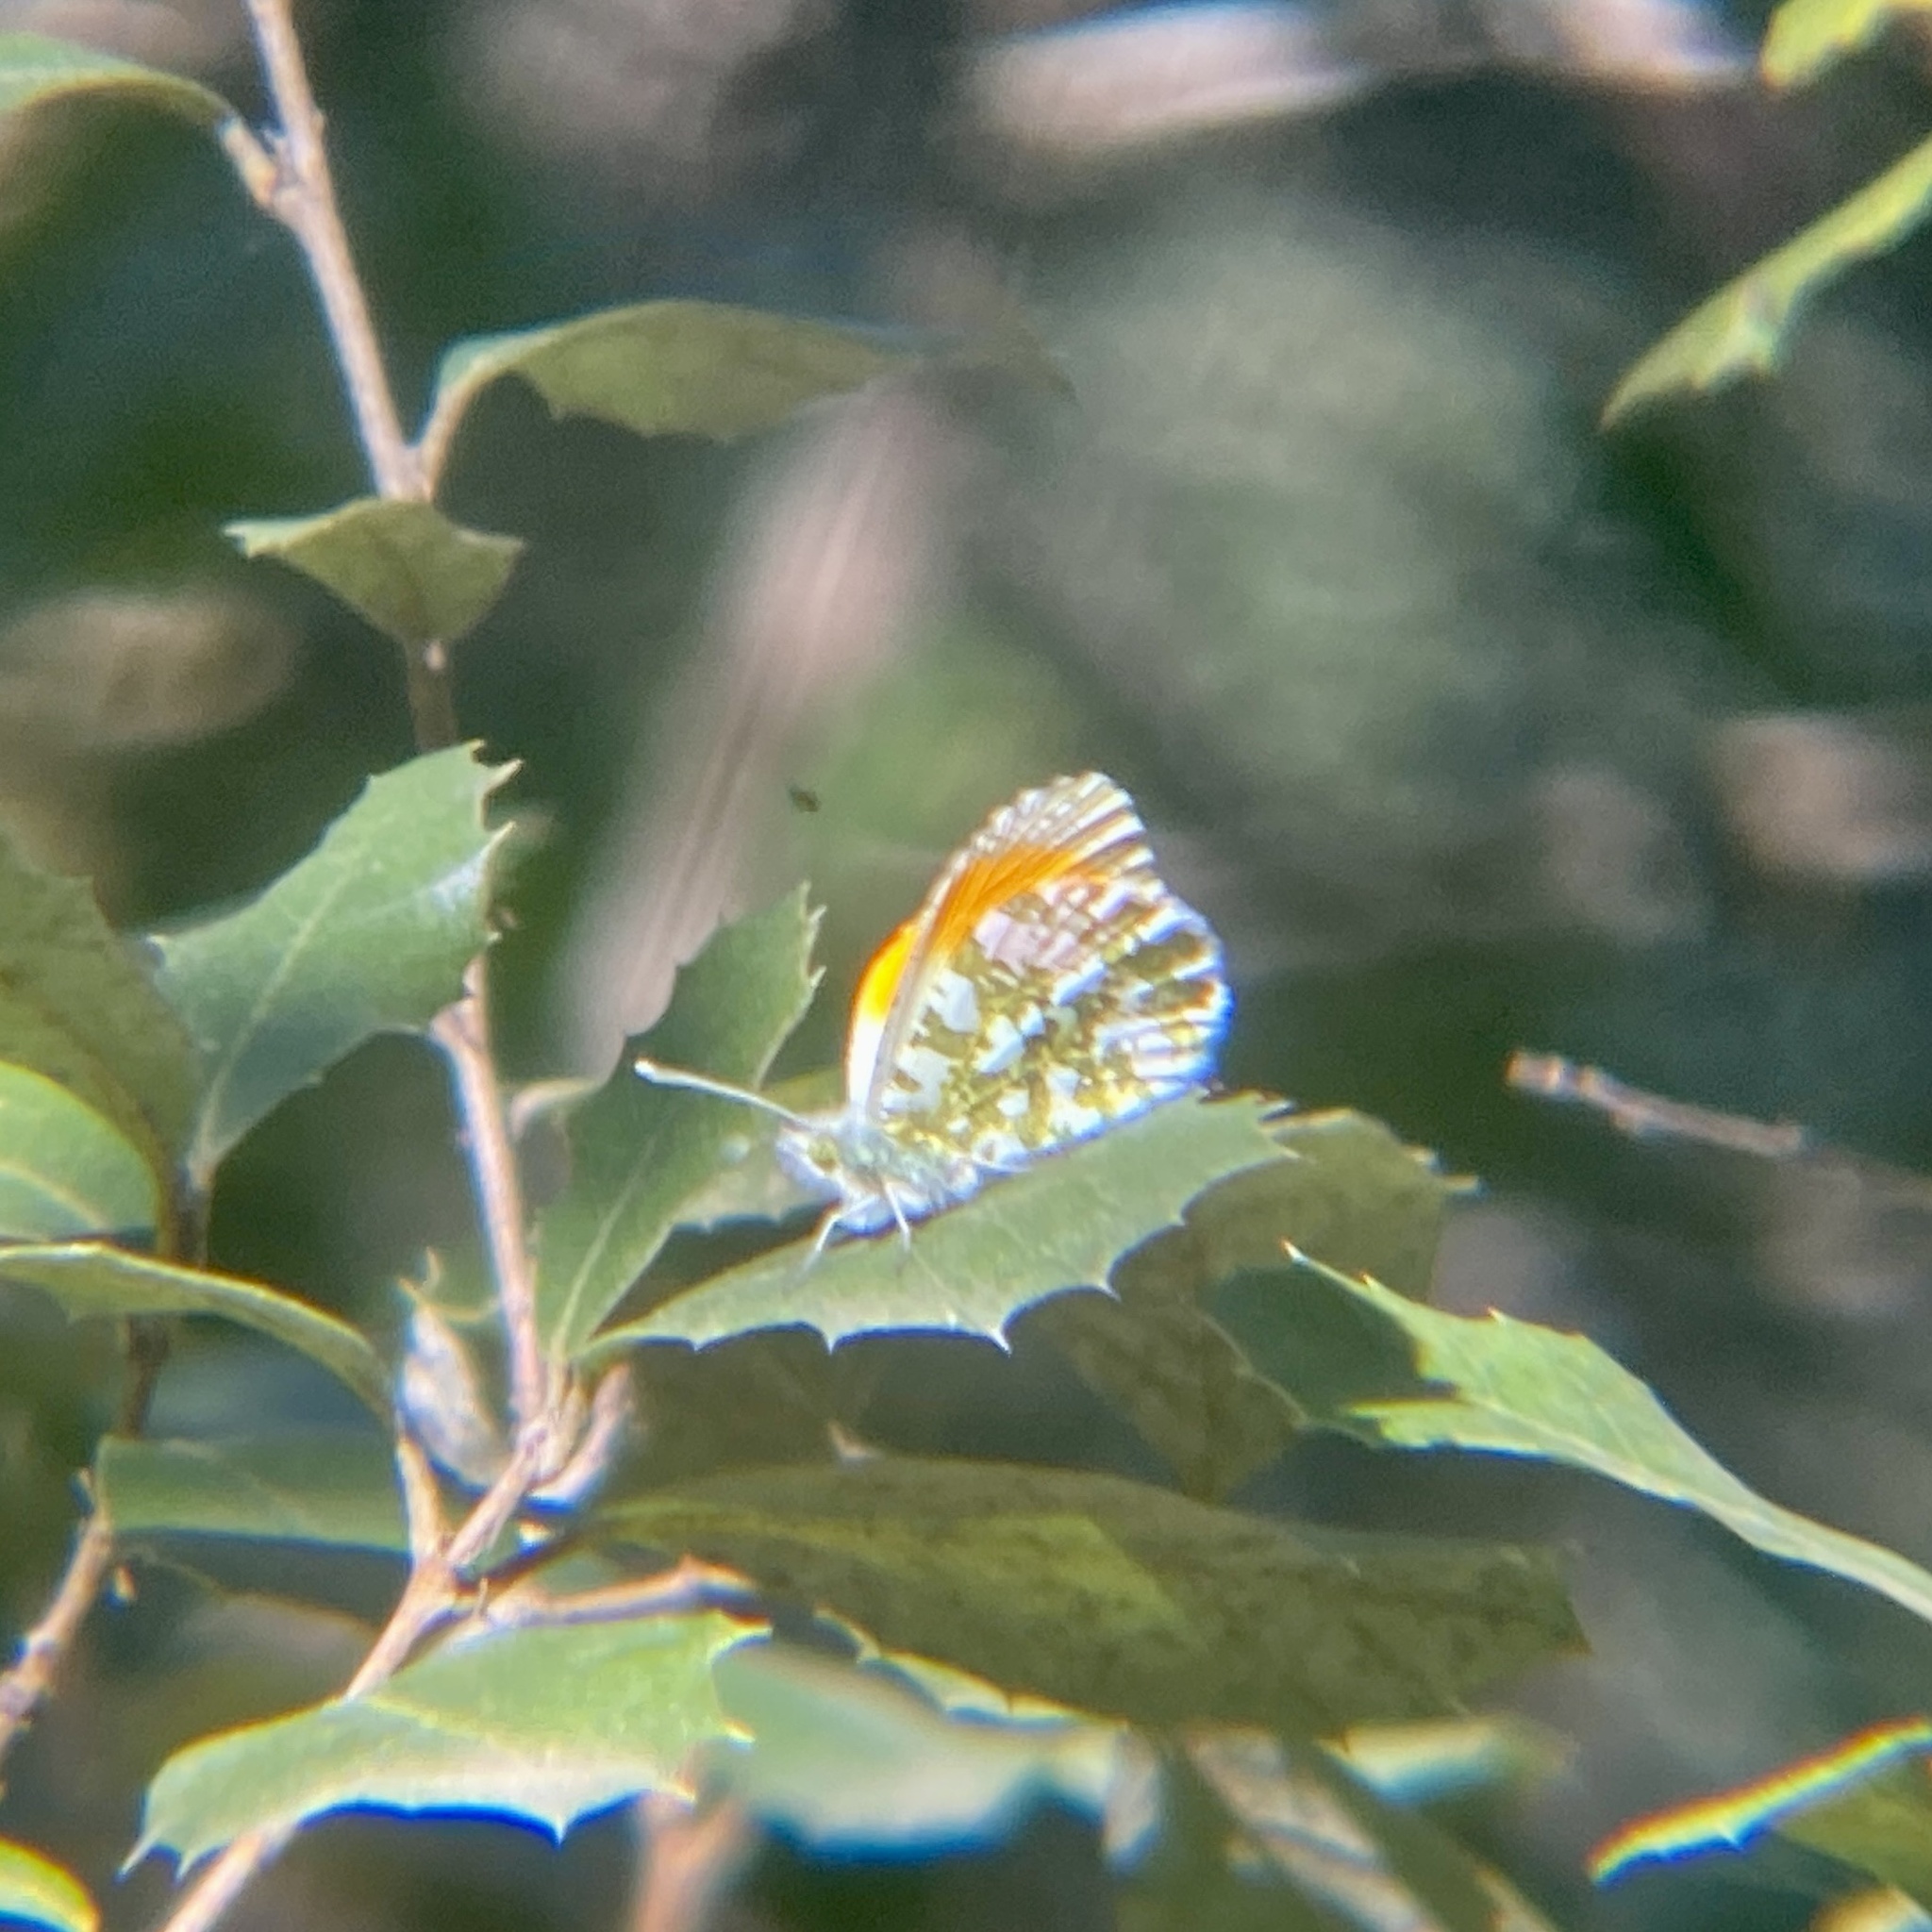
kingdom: Animalia
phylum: Arthropoda
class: Insecta
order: Lepidoptera
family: Pieridae
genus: Anthocharis
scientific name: Anthocharis cardamines
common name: Orange-tip
